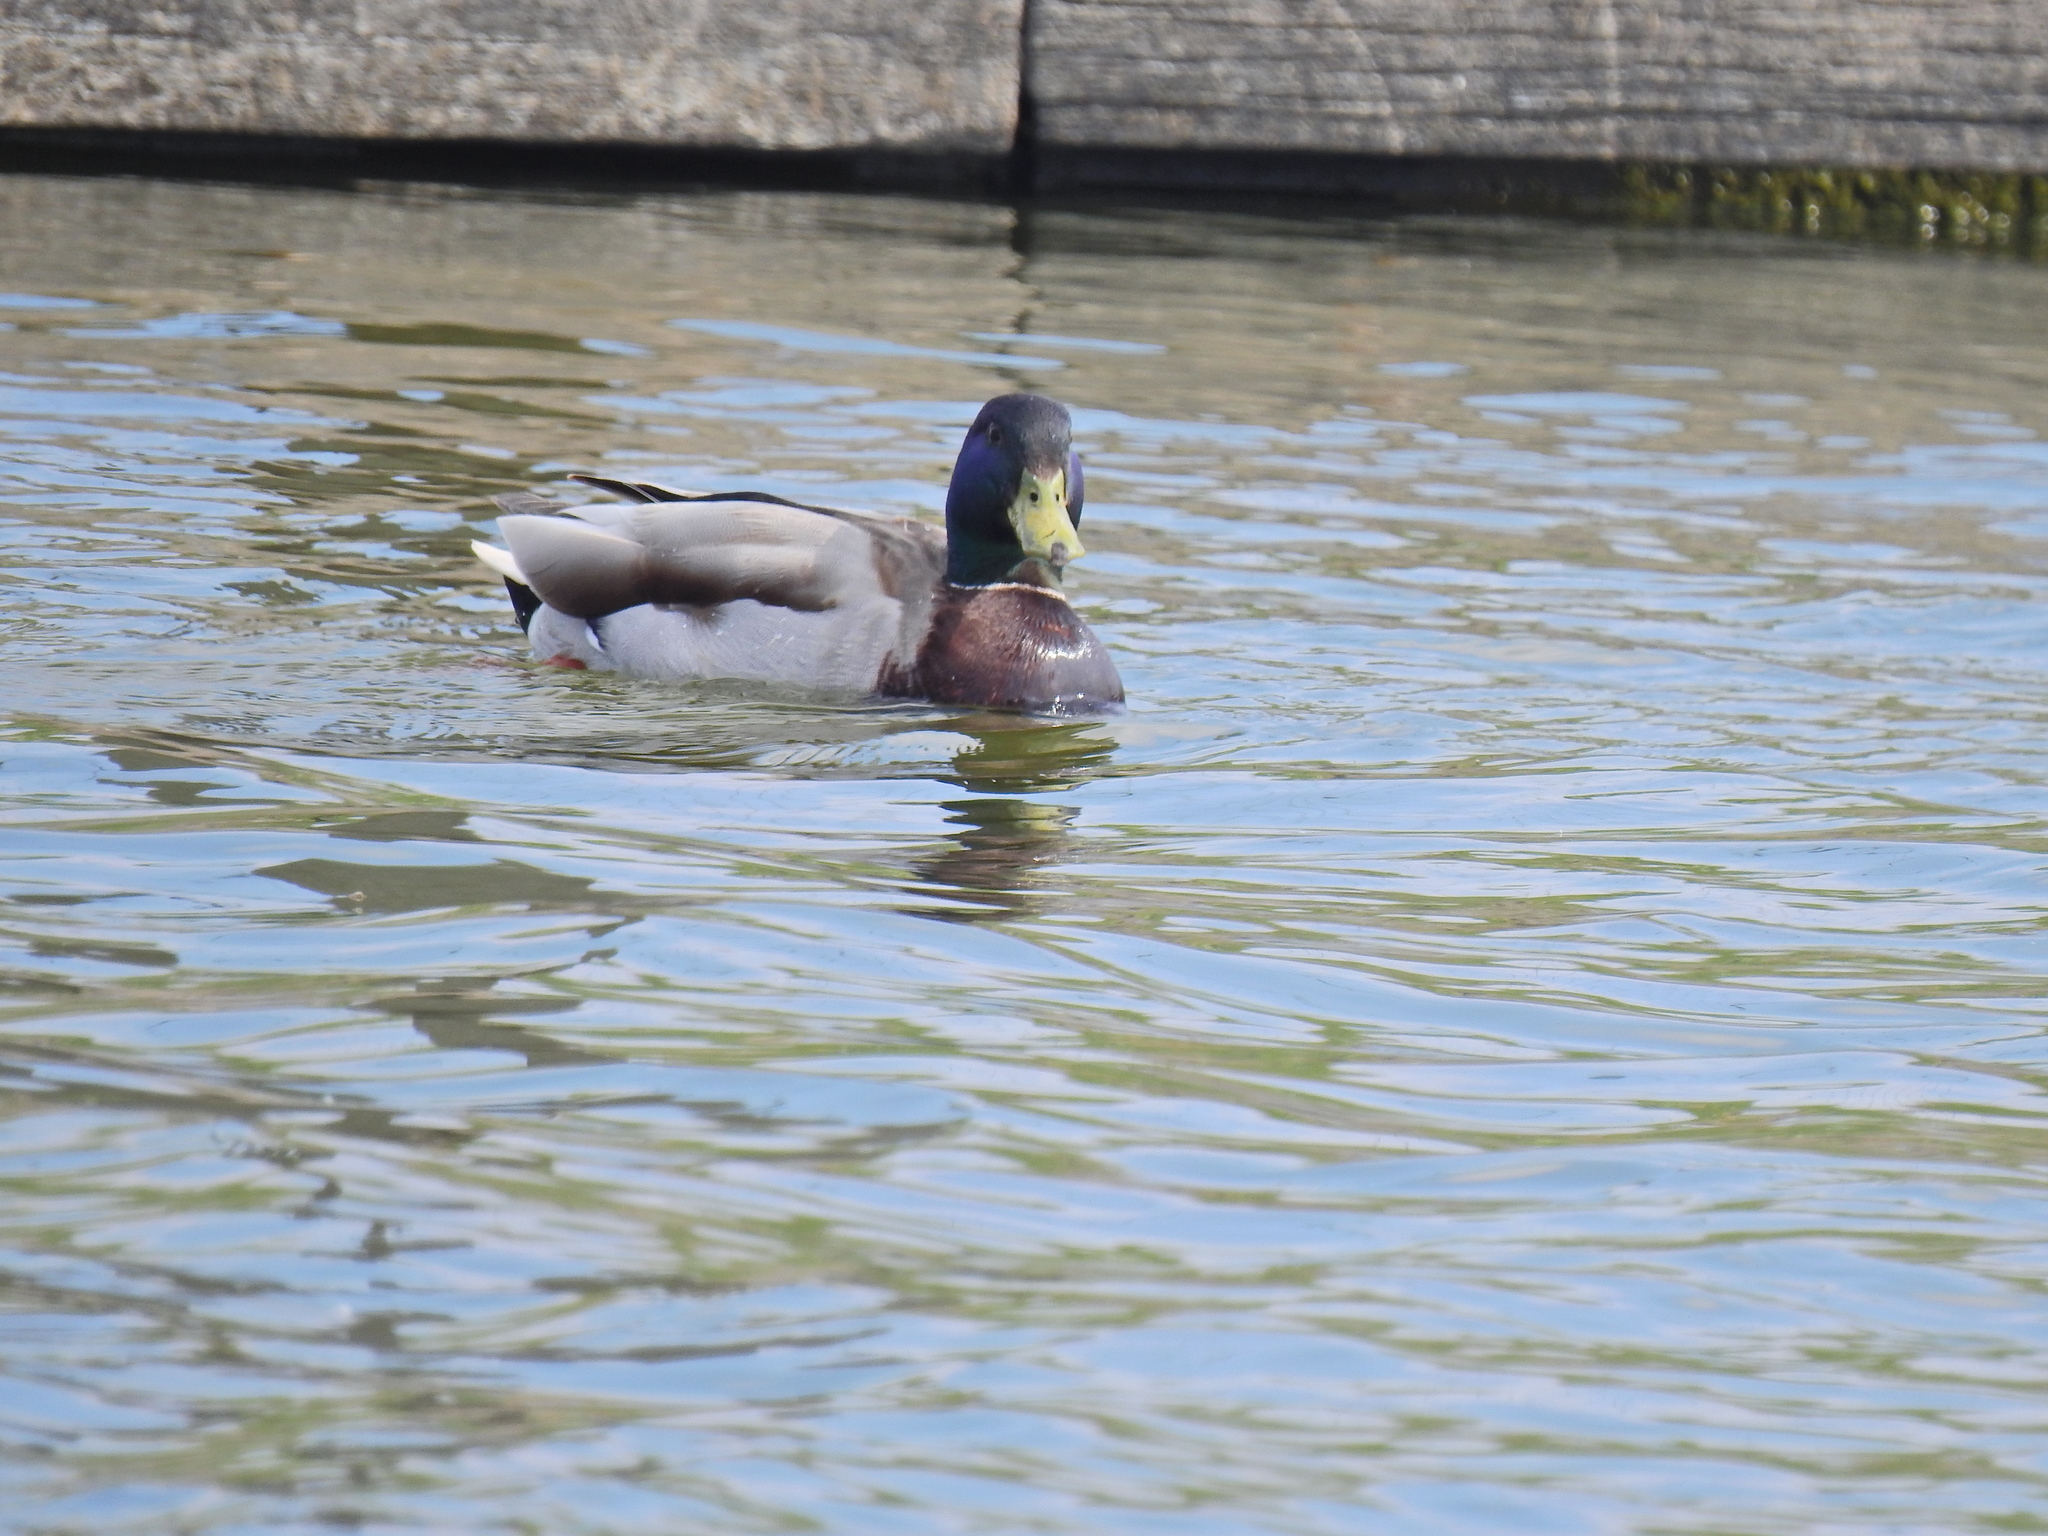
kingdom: Animalia
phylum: Chordata
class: Aves
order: Anseriformes
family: Anatidae
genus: Anas
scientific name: Anas platyrhynchos
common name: Mallard
